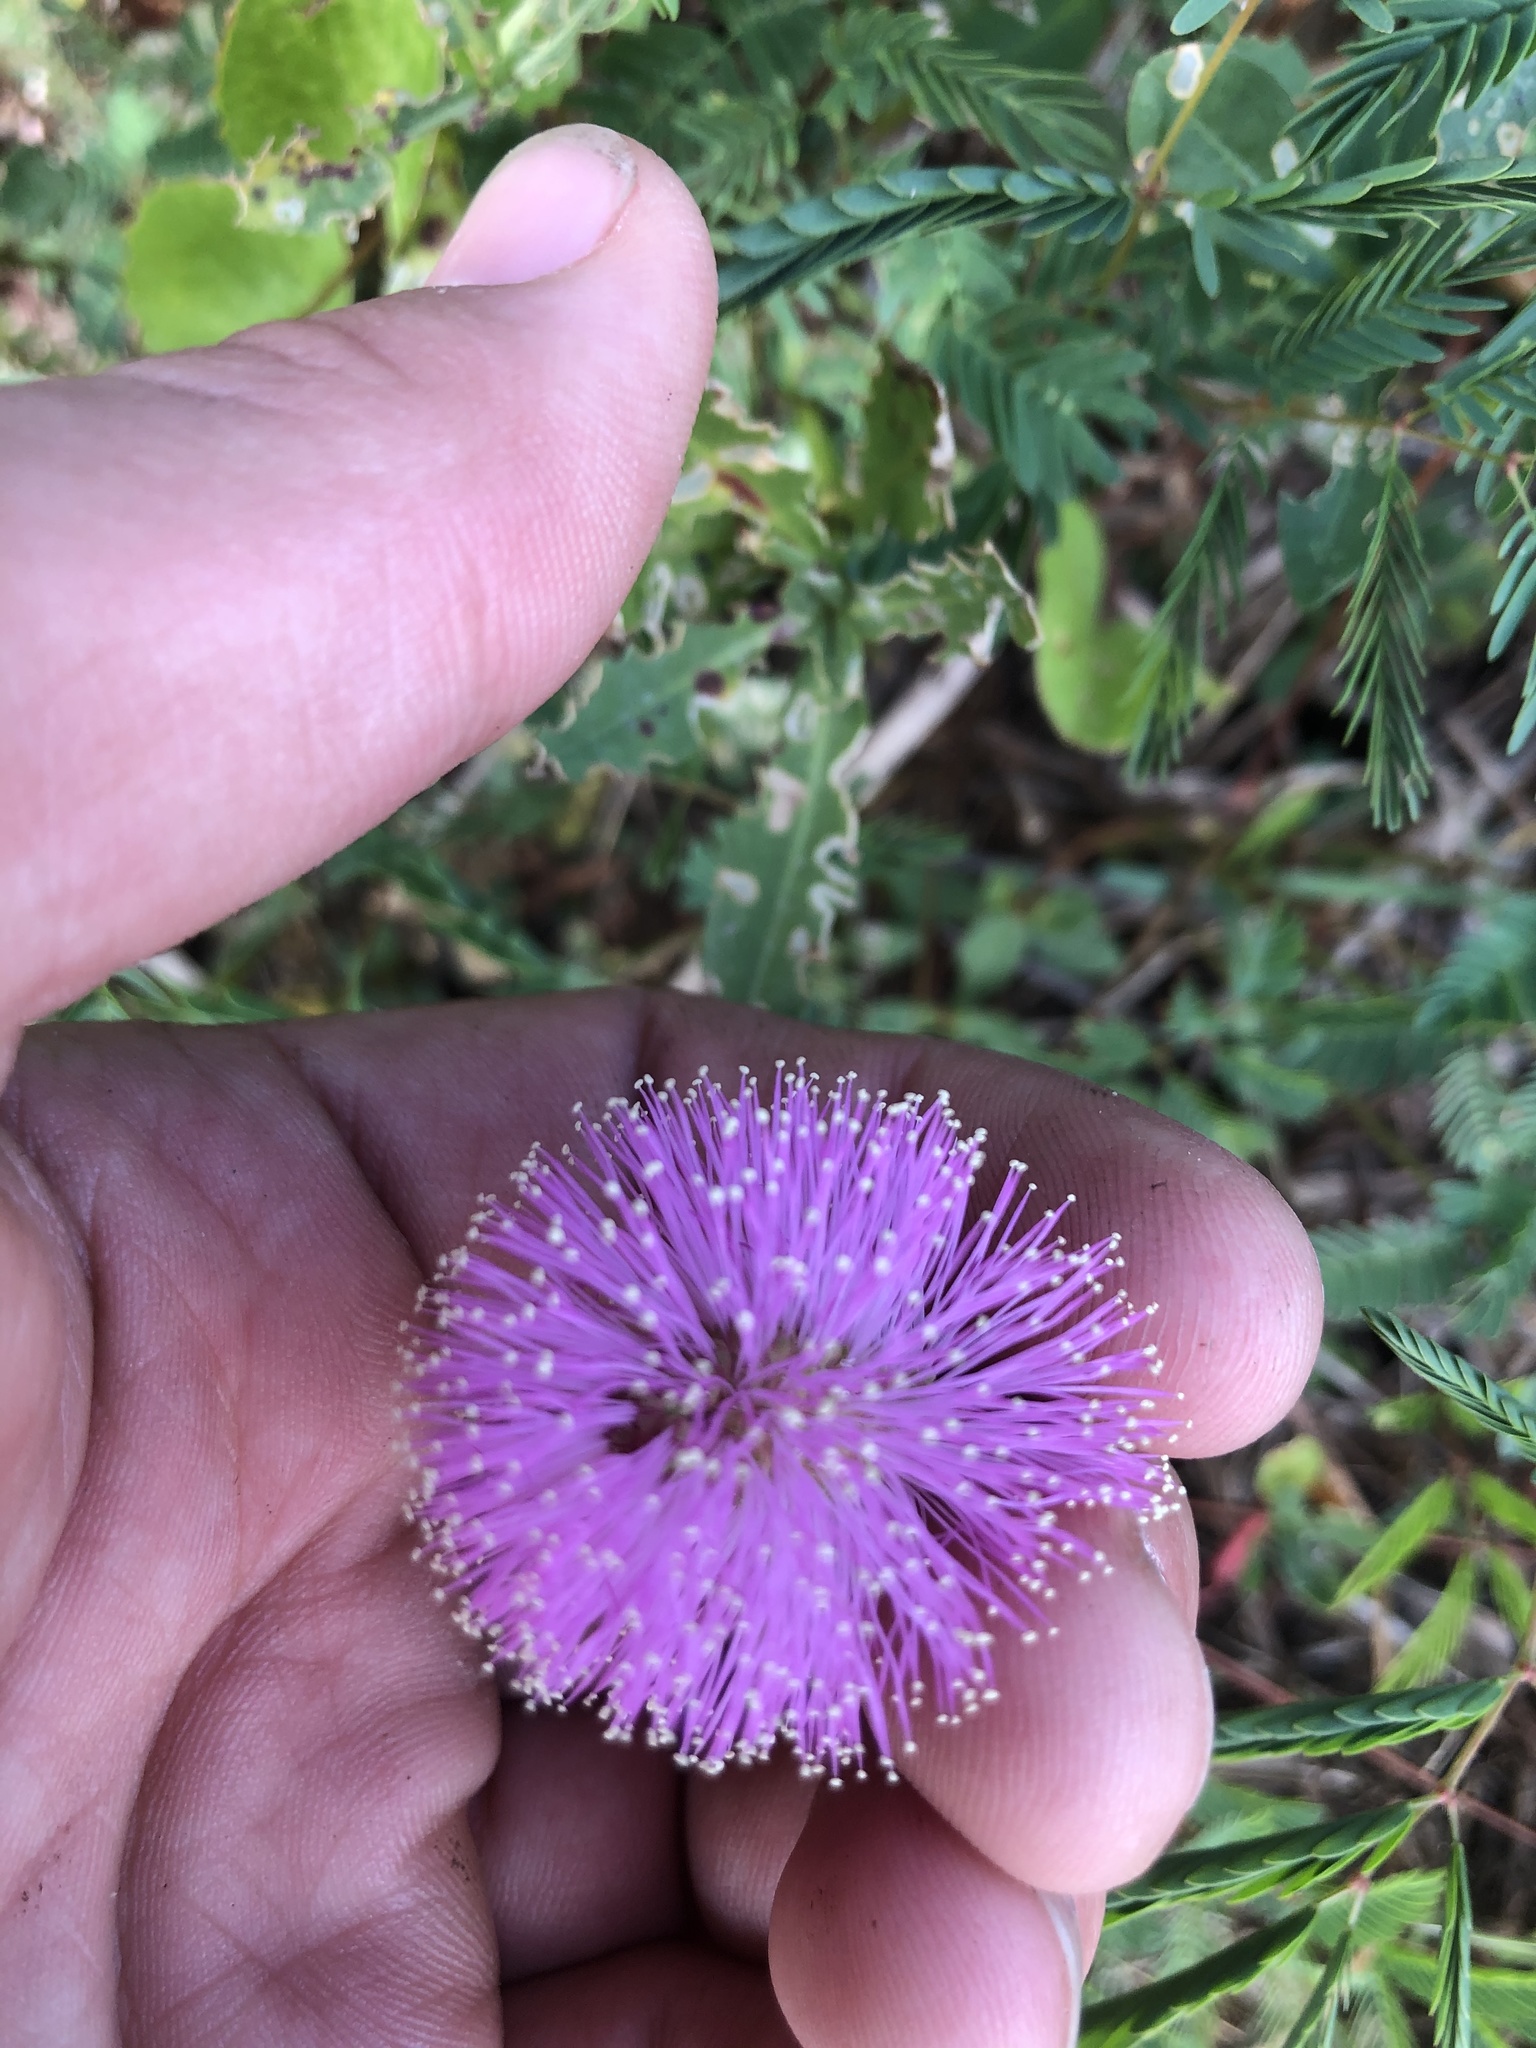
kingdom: Plantae
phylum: Tracheophyta
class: Magnoliopsida
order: Fabales
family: Fabaceae
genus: Mimosa
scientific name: Mimosa strigillosa
